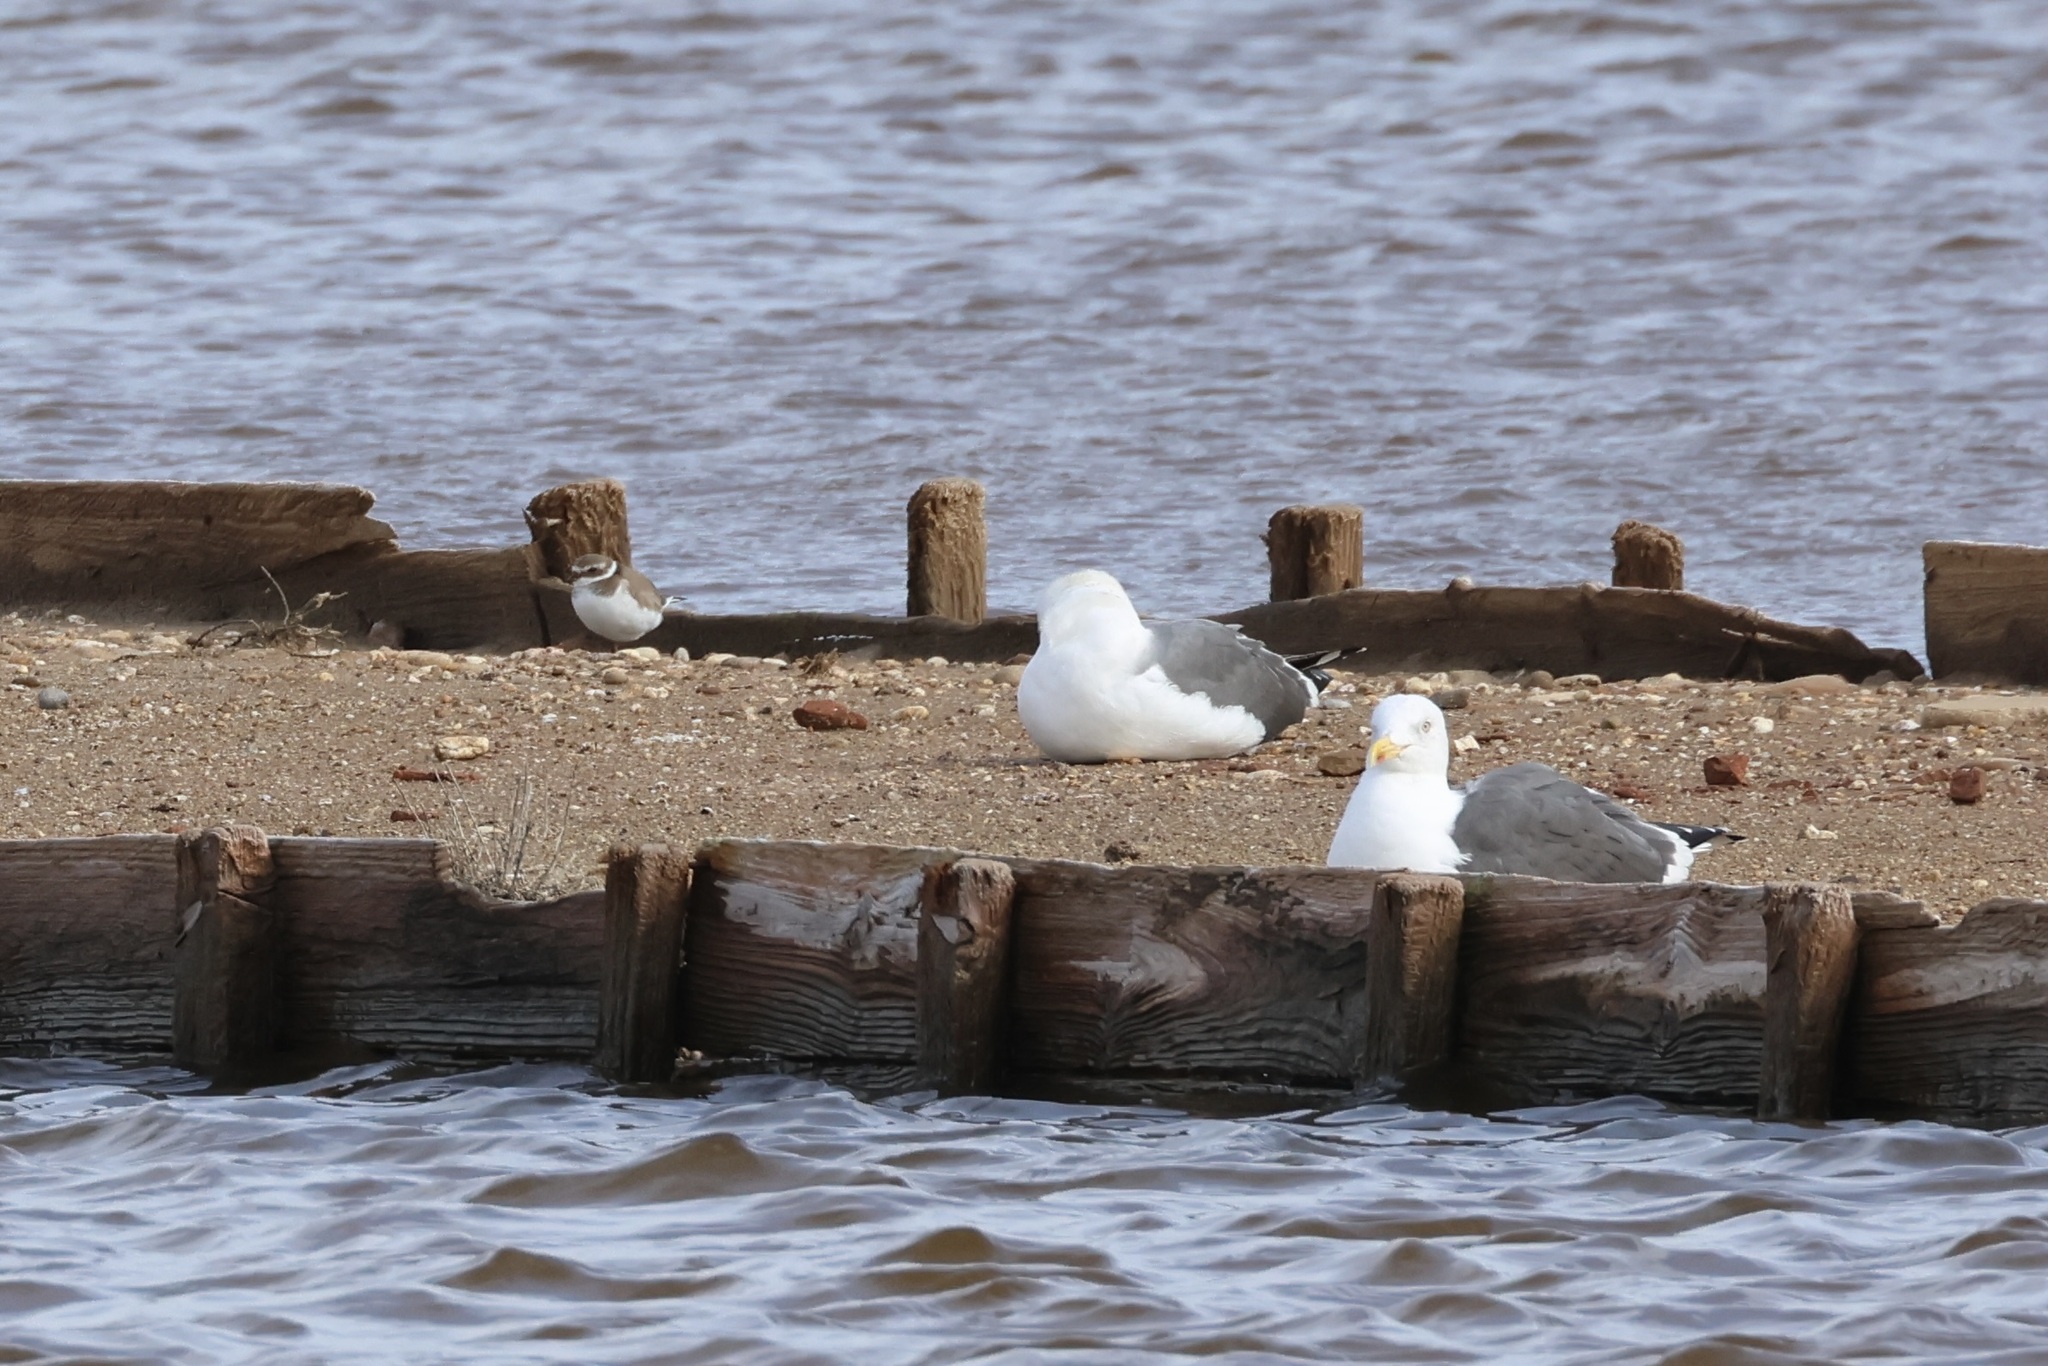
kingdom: Animalia
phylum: Chordata
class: Aves
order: Charadriiformes
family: Laridae
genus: Larus
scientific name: Larus fuscus
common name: Lesser black-backed gull
